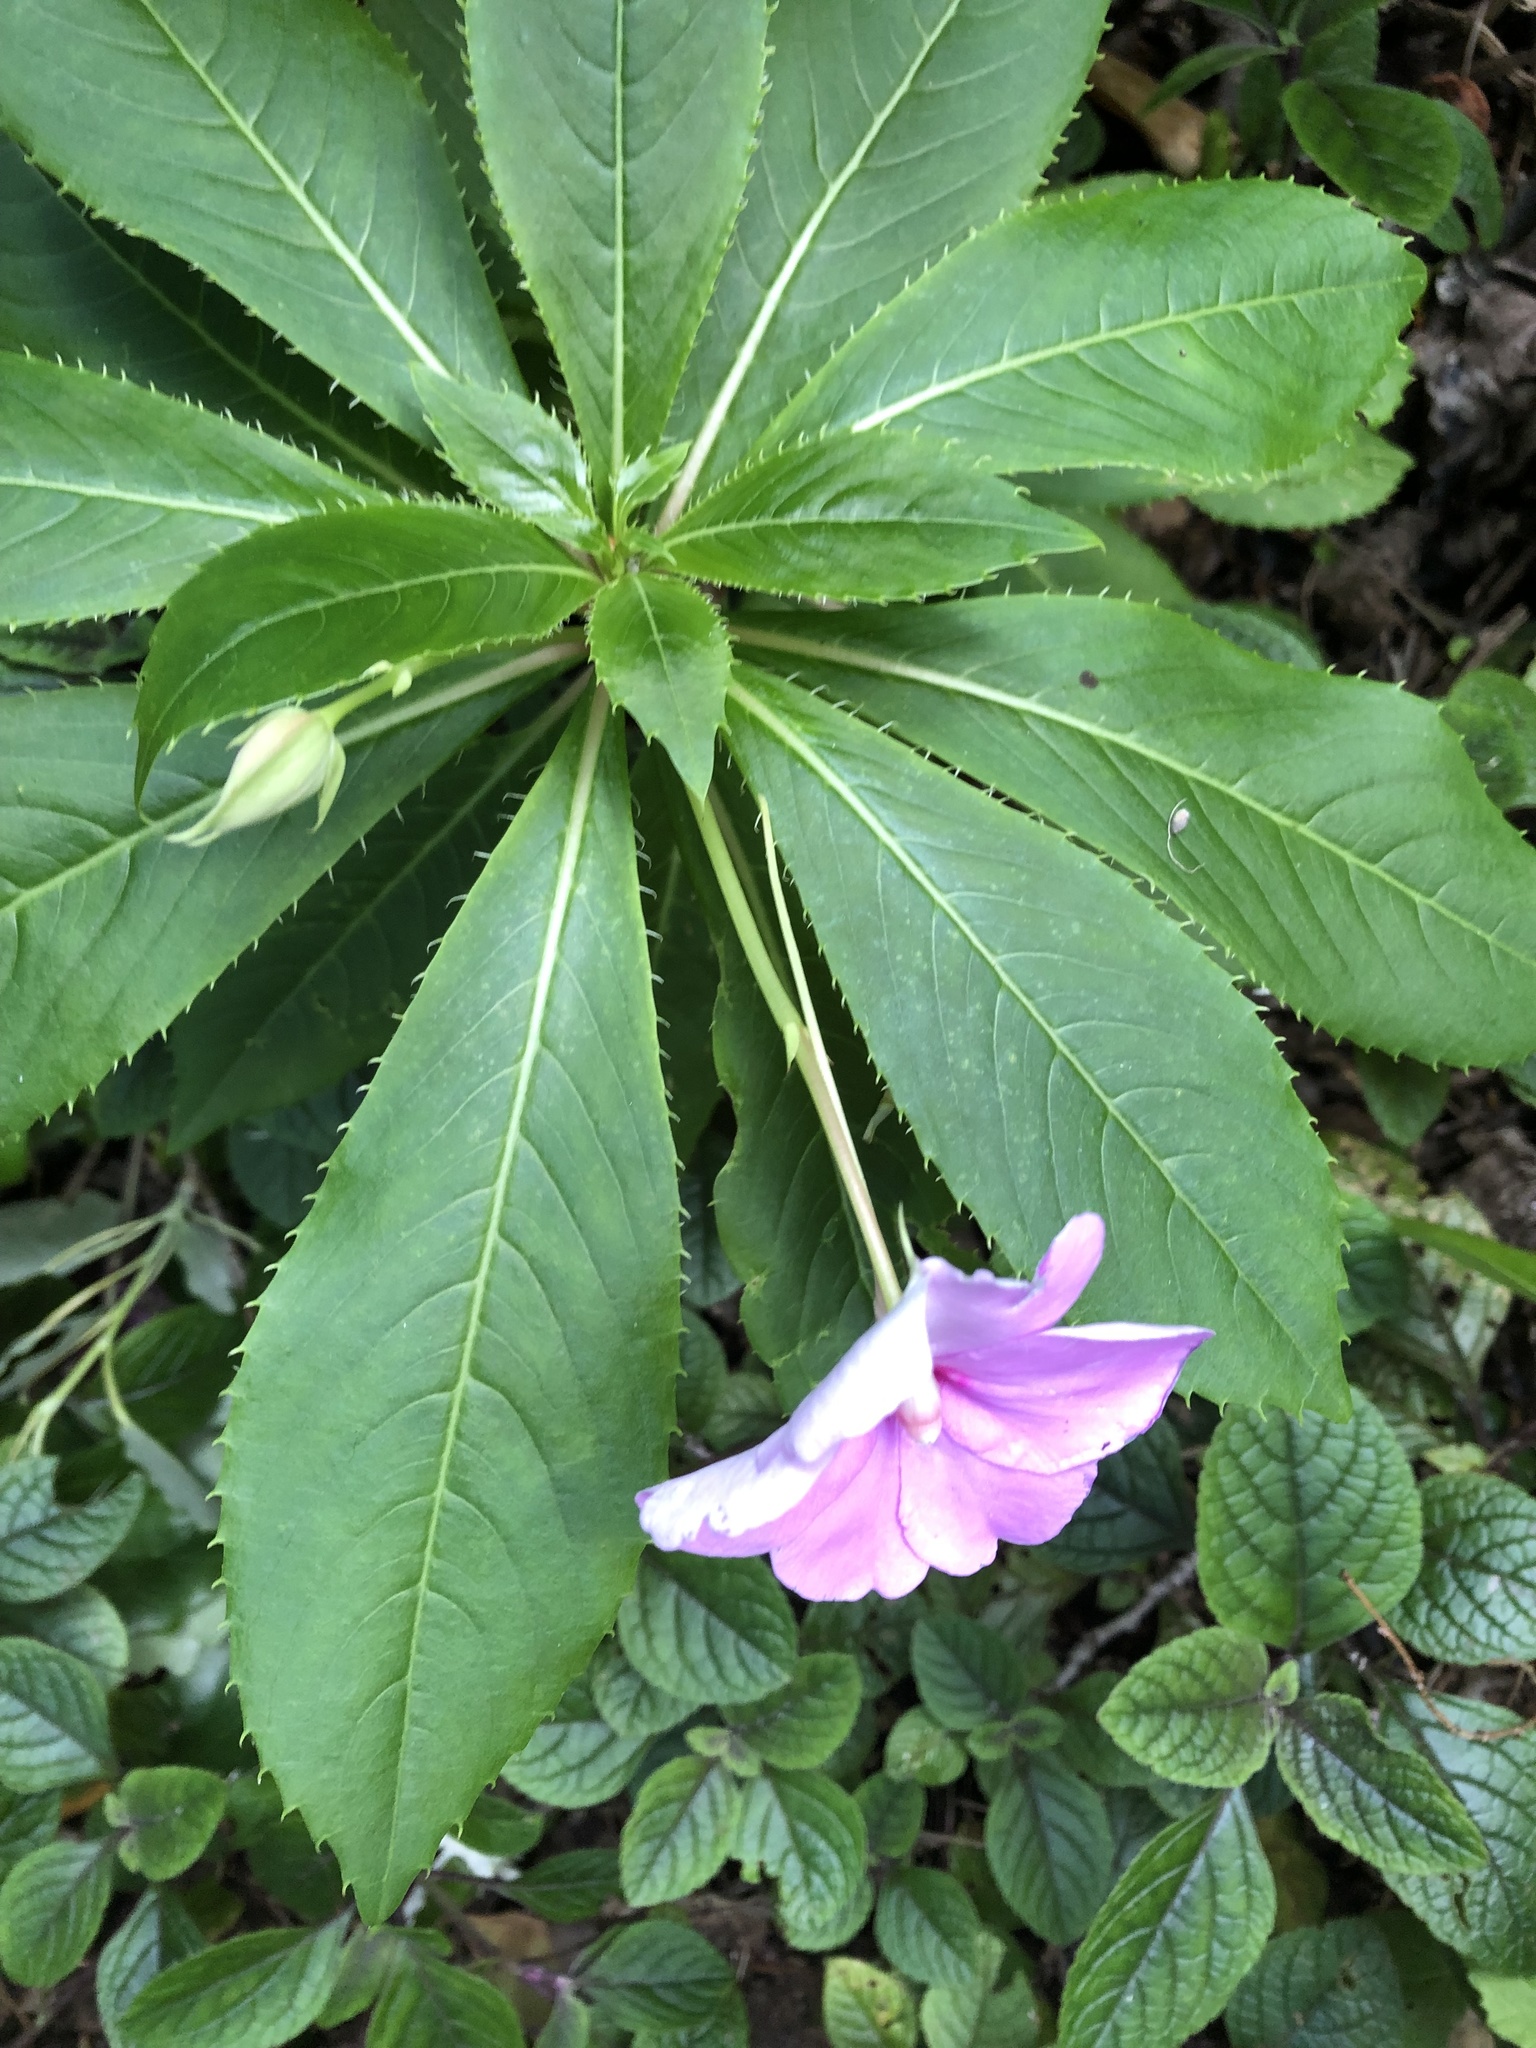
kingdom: Plantae
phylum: Tracheophyta
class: Magnoliopsida
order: Ericales
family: Balsaminaceae
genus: Impatiens
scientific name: Impatiens sodenii
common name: Oliver's touch-me-not
